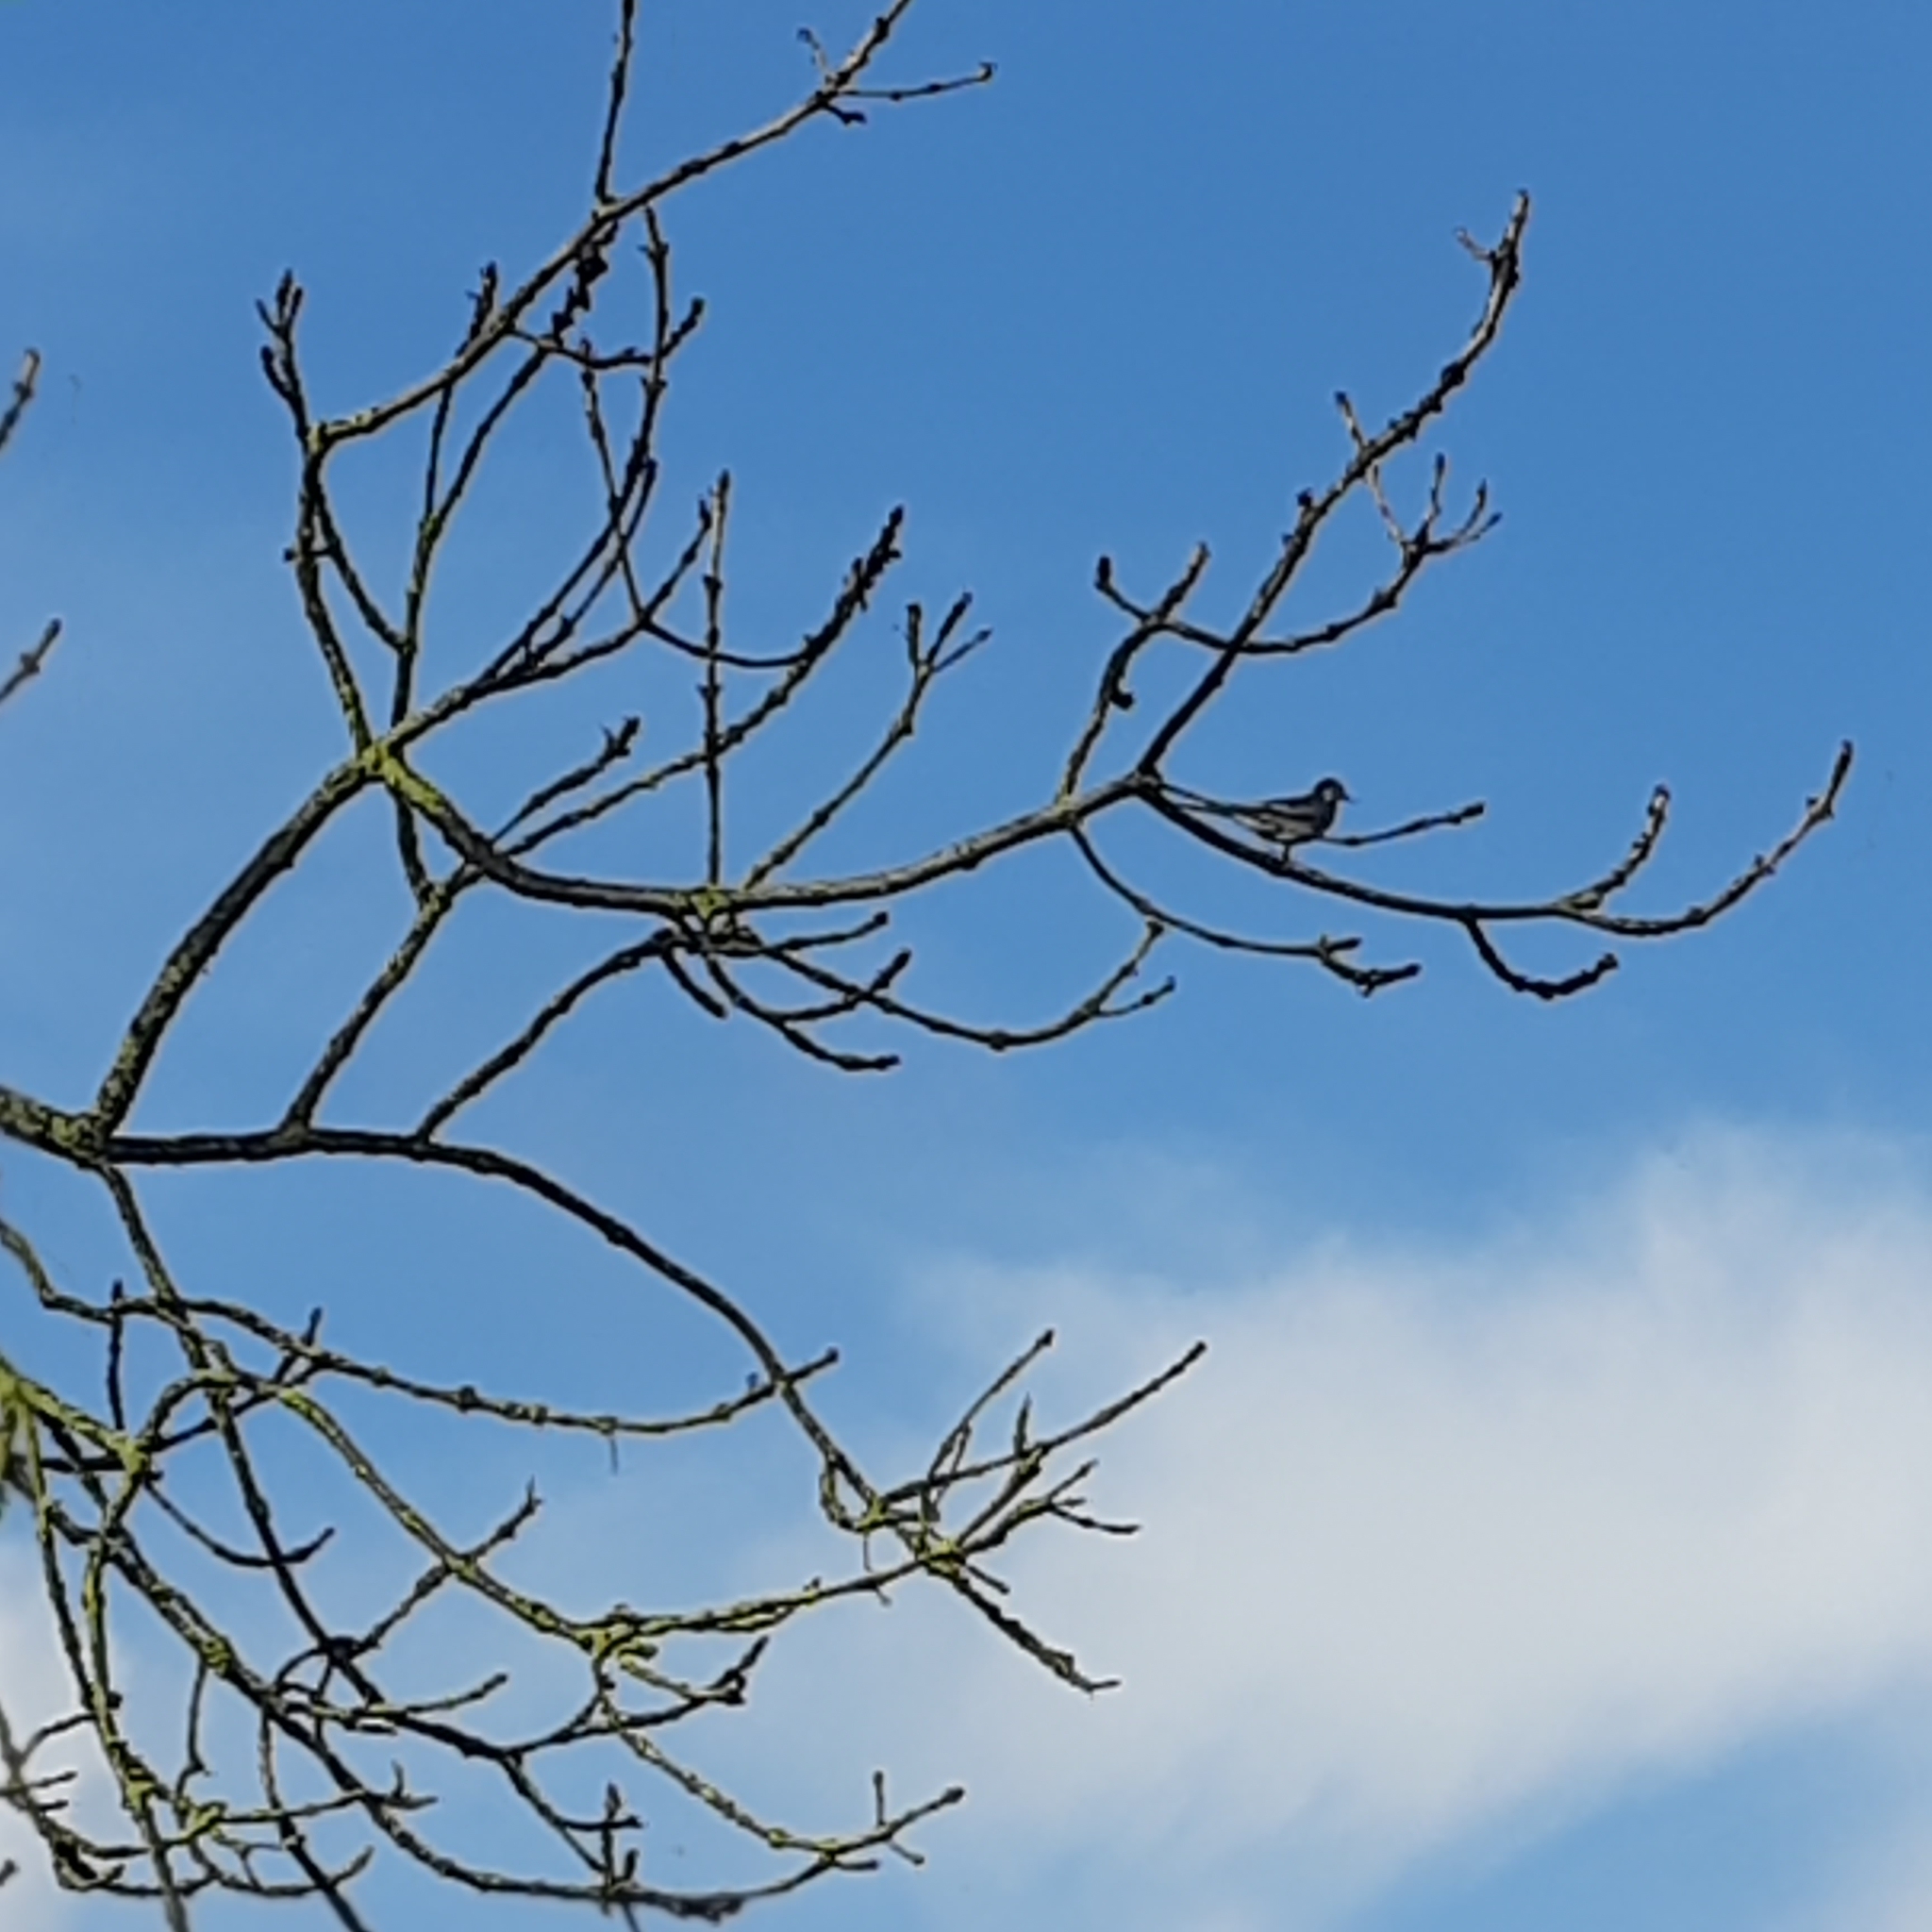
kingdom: Animalia
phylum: Chordata
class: Aves
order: Passeriformes
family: Motacillidae
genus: Motacilla
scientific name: Motacilla alba
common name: White wagtail
